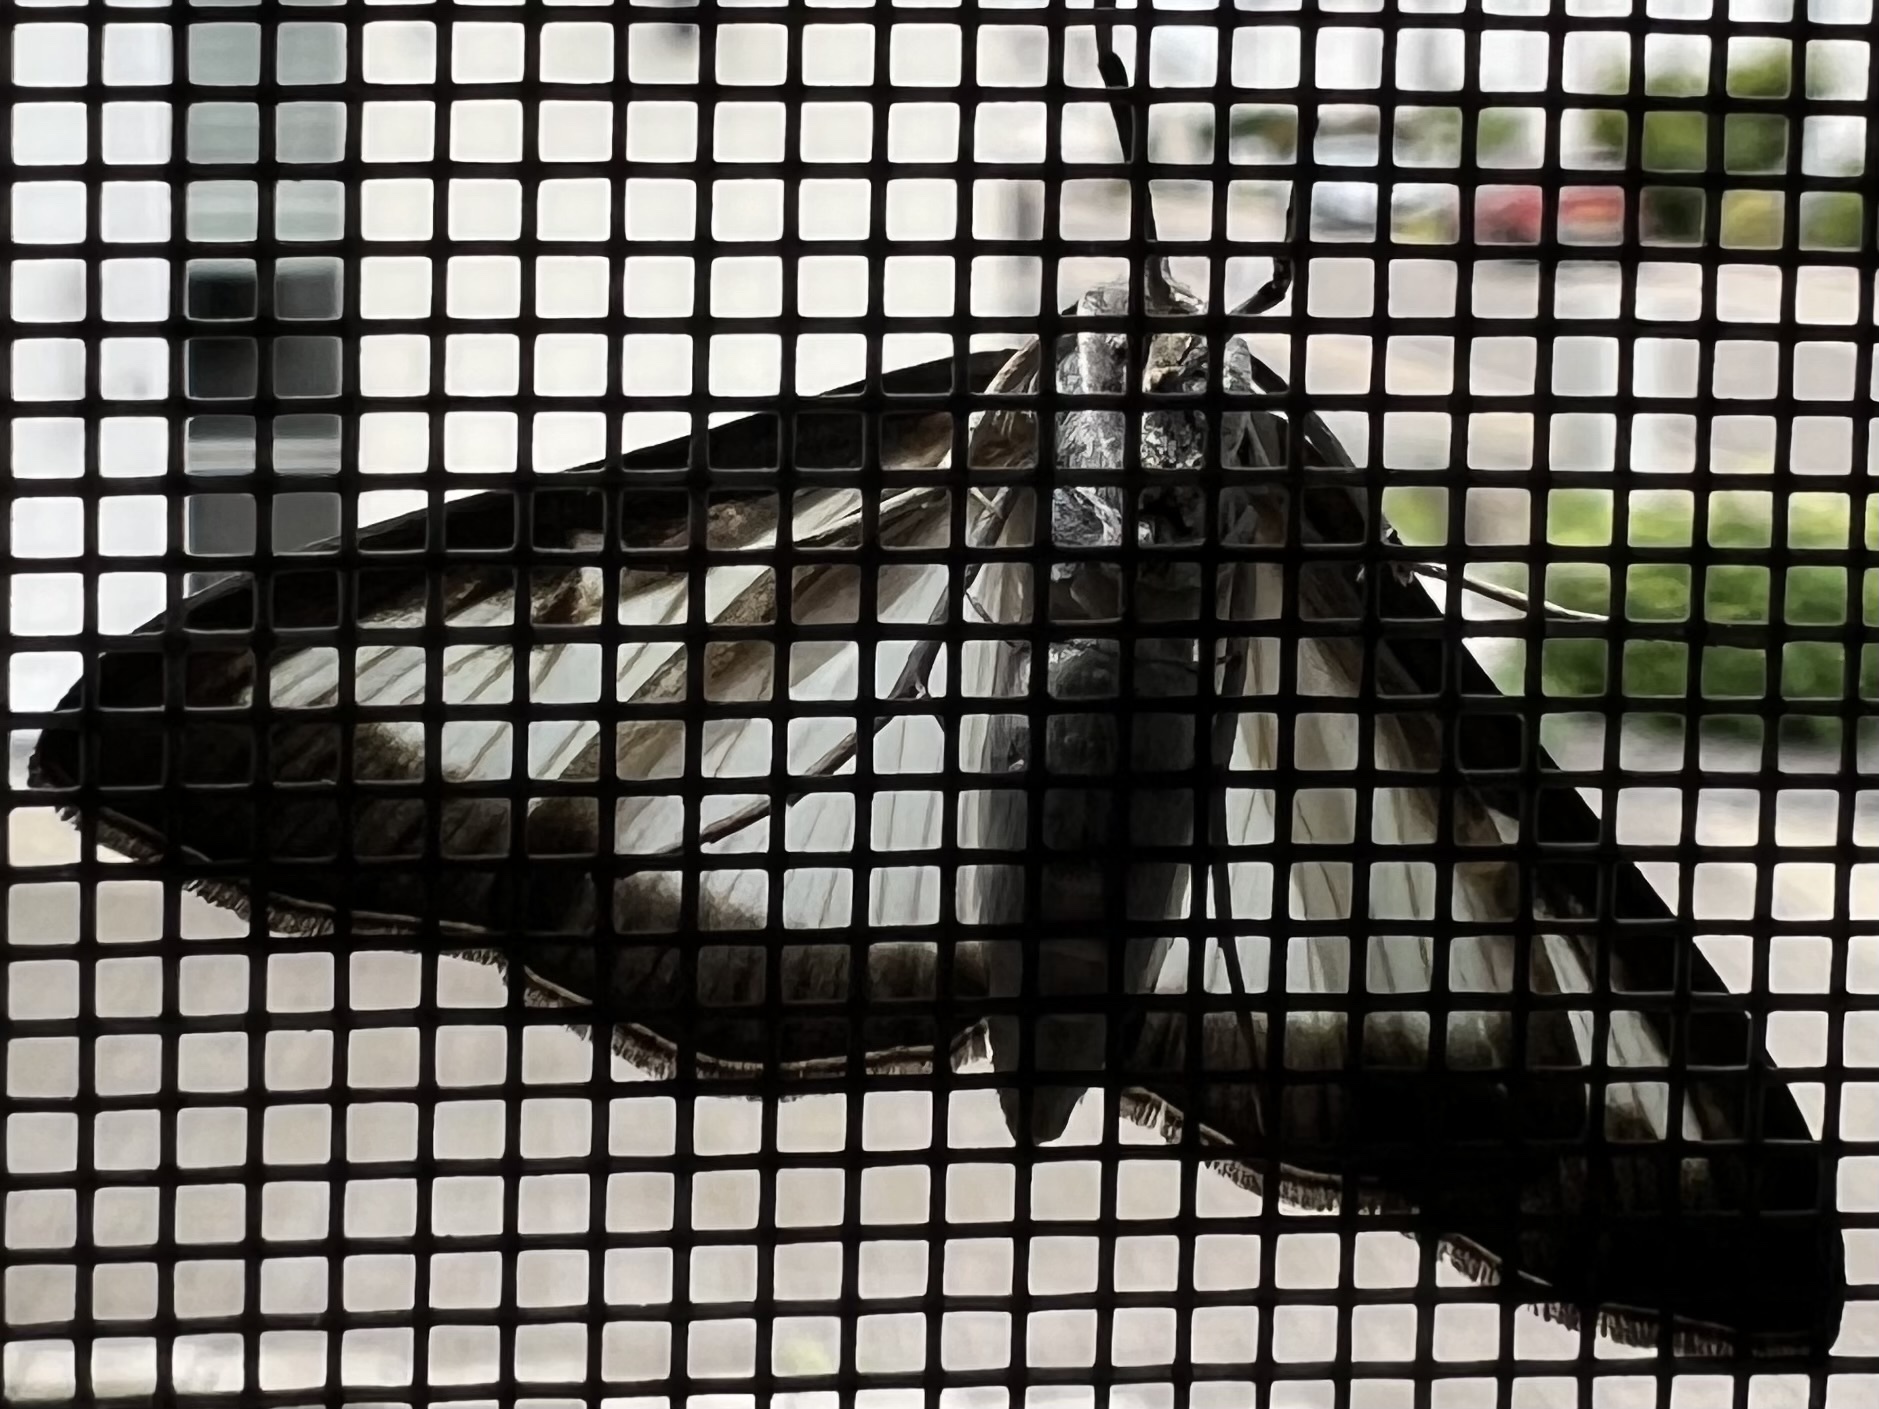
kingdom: Animalia
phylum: Arthropoda
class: Insecta
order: Lepidoptera
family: Crambidae
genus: Cydalima
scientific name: Cydalima perspectalis
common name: Box tree moth
